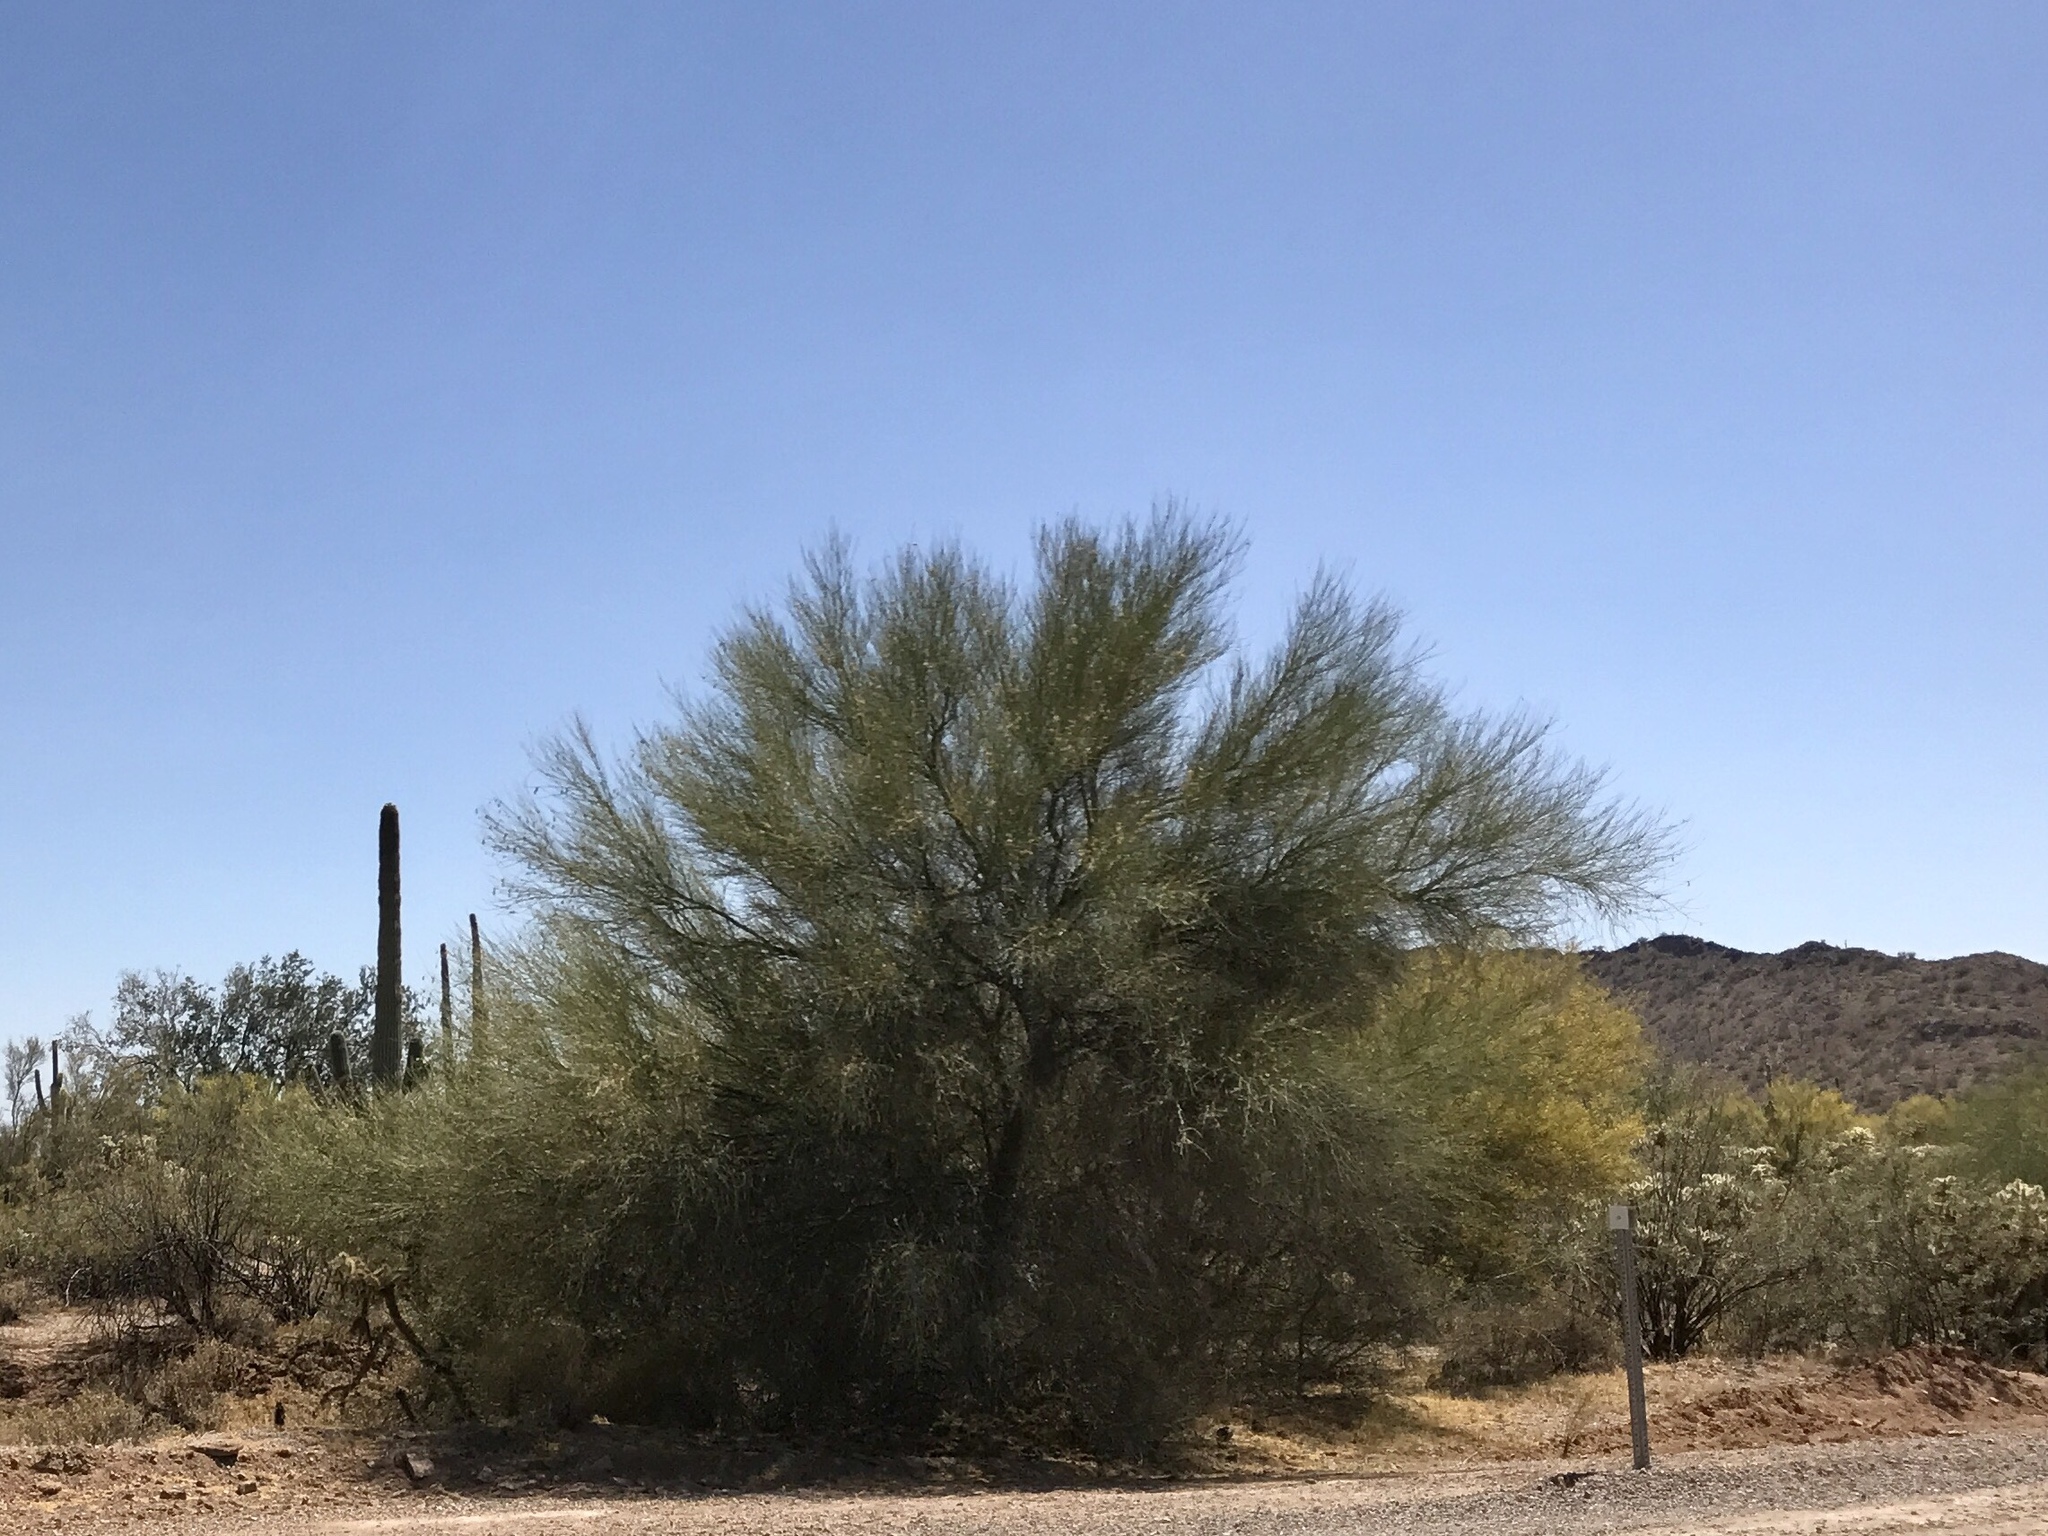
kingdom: Plantae
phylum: Tracheophyta
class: Magnoliopsida
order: Fabales
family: Fabaceae
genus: Parkinsonia
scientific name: Parkinsonia florida
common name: Blue paloverde
